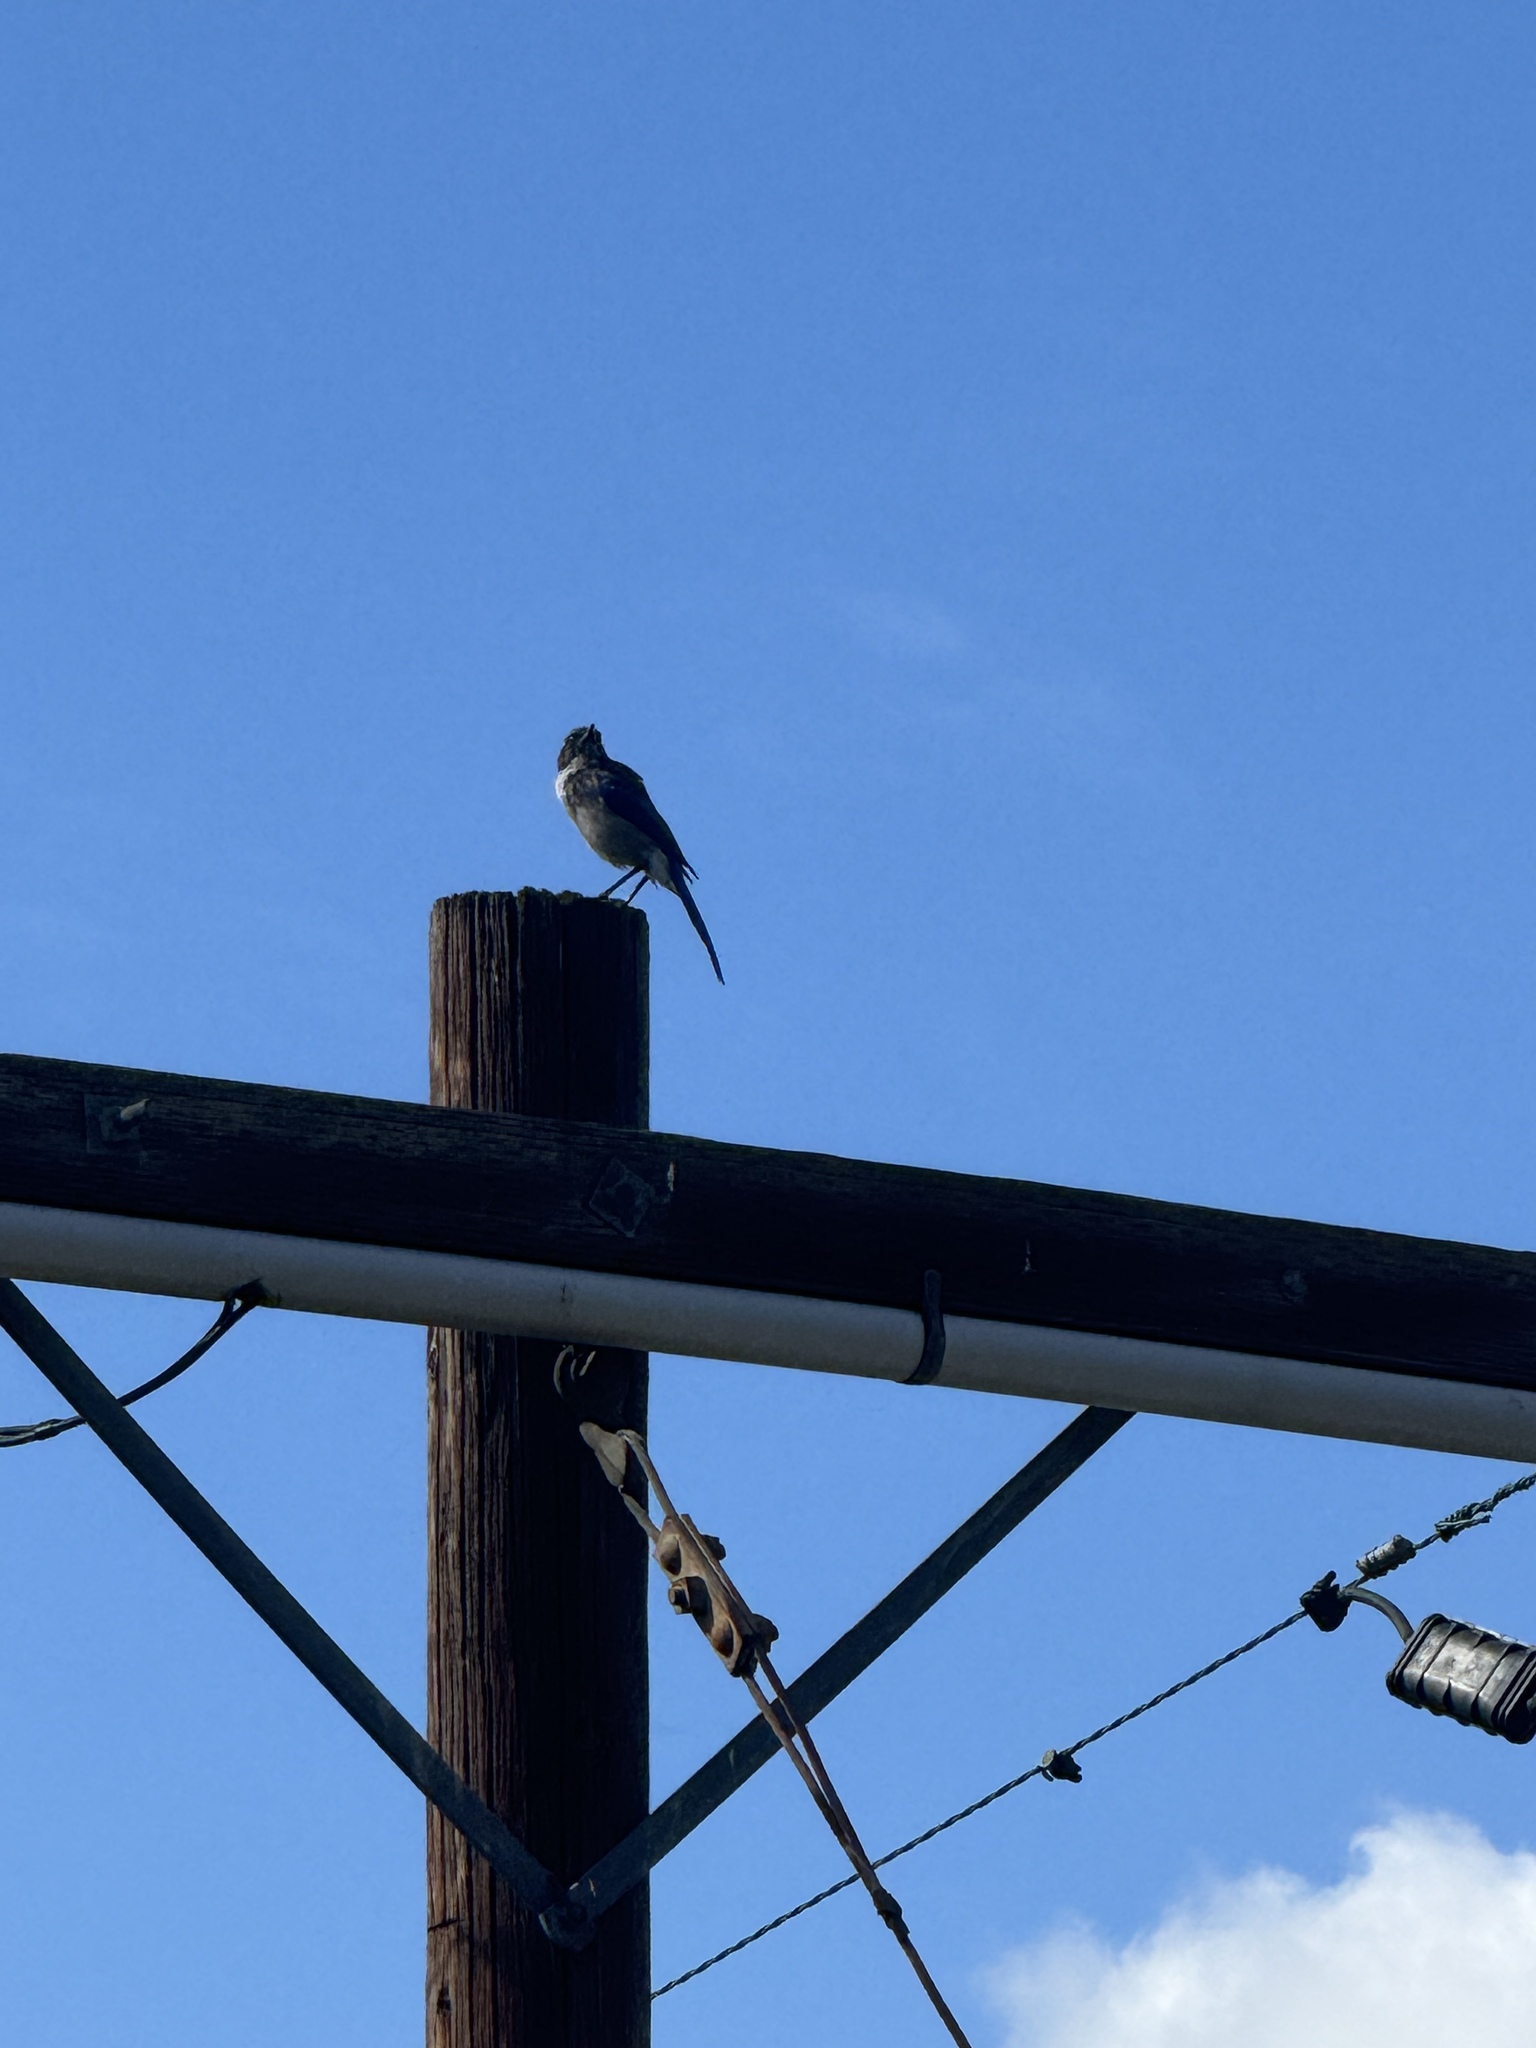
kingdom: Animalia
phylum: Chordata
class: Aves
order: Passeriformes
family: Corvidae
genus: Aphelocoma
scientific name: Aphelocoma californica
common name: California scrub-jay
